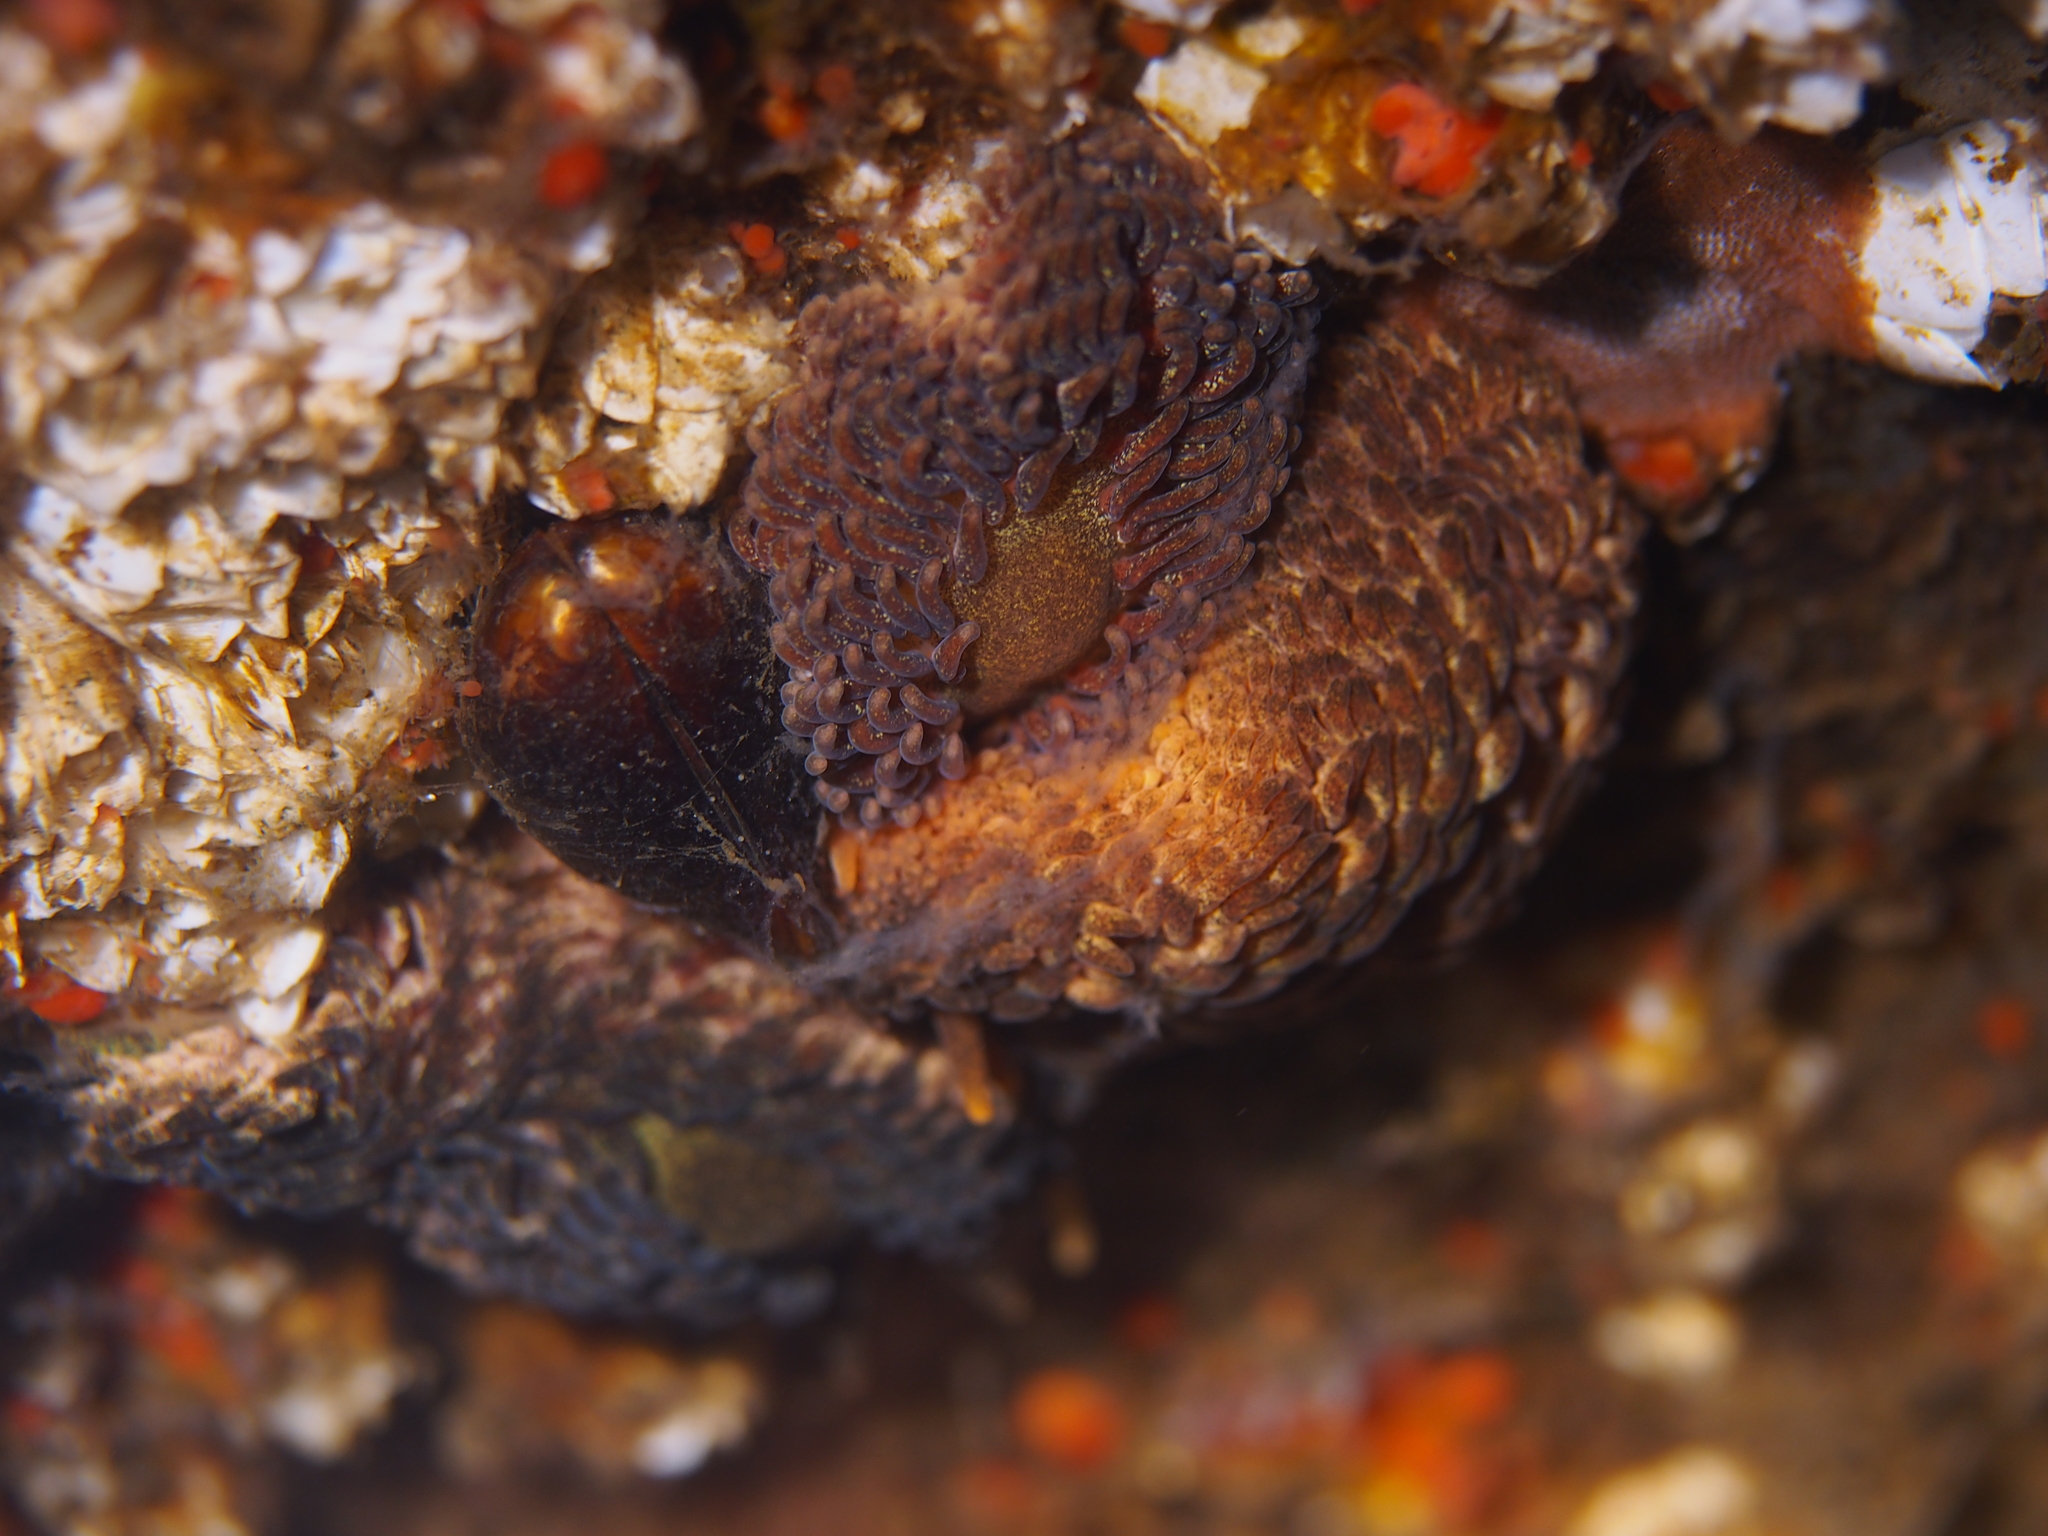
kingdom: Animalia
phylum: Mollusca
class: Gastropoda
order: Nudibranchia
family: Aeolidiidae
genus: Aeolidia
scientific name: Aeolidia papillosa
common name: Common grey sea slug
